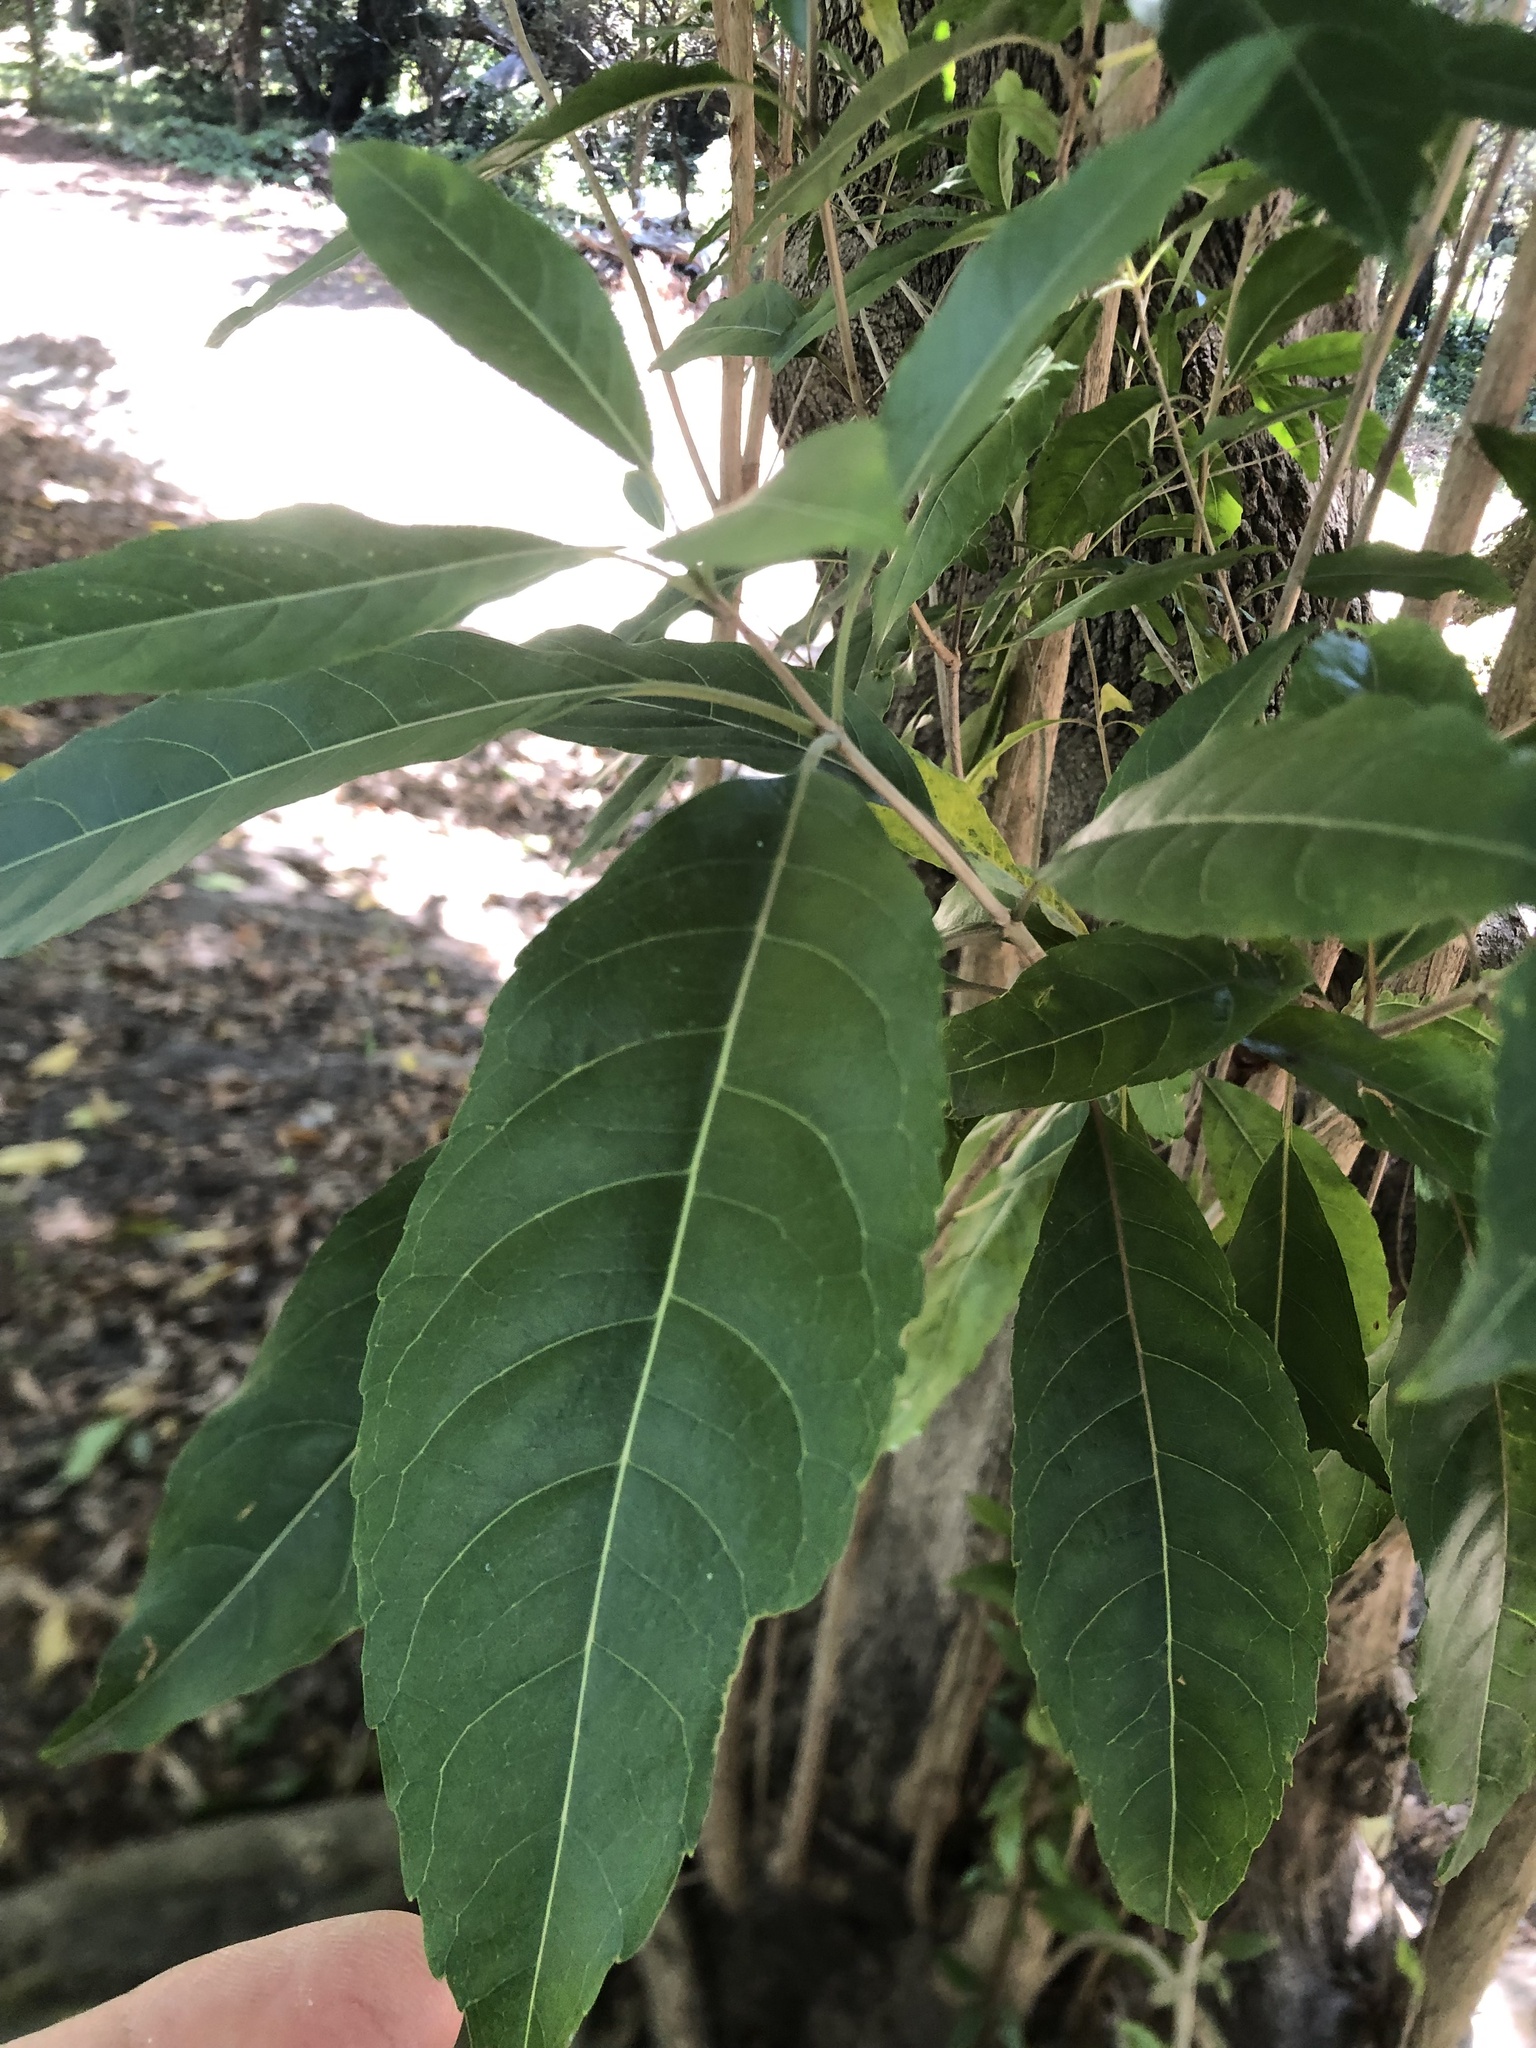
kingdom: Plantae
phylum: Tracheophyta
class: Magnoliopsida
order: Lamiales
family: Stilbaceae
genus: Nuxia
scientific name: Nuxia floribunda
